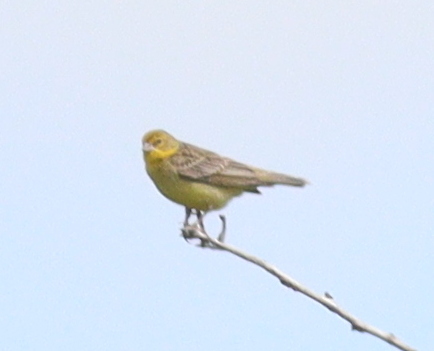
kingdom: Animalia
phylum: Chordata
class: Aves
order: Passeriformes
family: Thraupidae
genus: Sicalis
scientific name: Sicalis luteola
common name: Grassland yellow-finch
